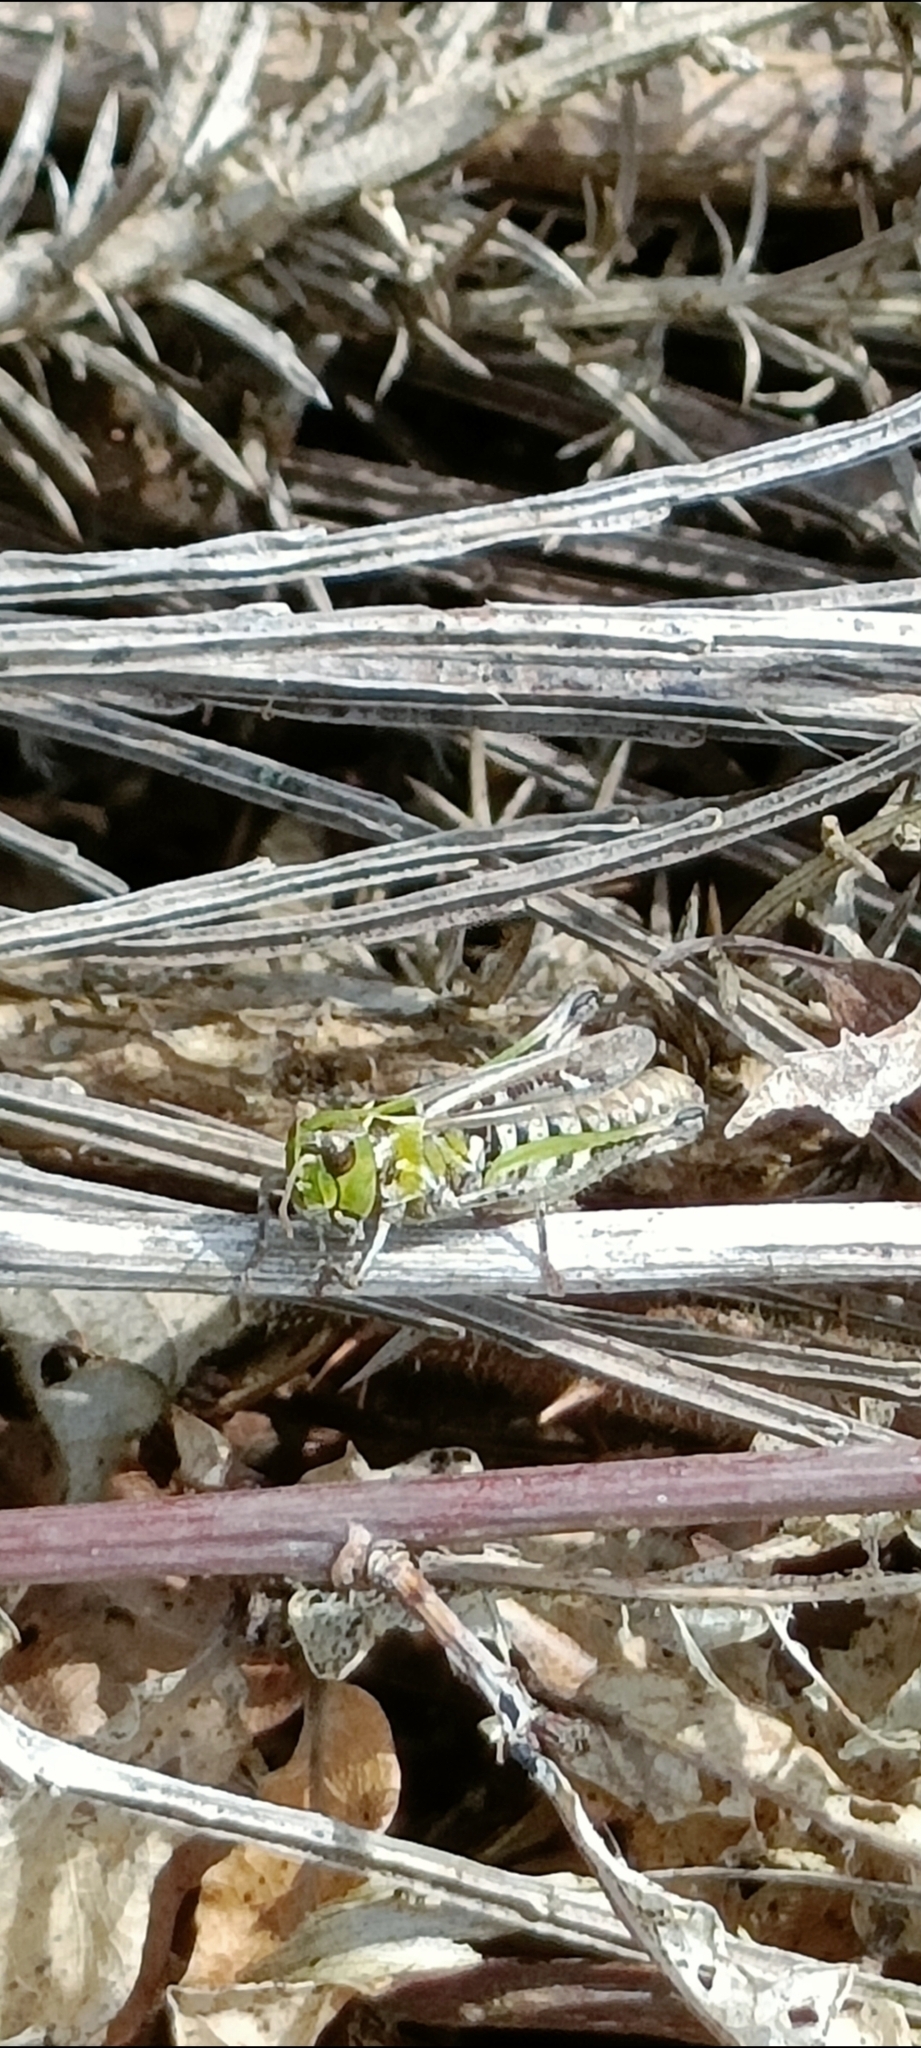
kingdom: Animalia
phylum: Arthropoda
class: Insecta
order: Orthoptera
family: Acrididae
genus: Myrmeleotettix
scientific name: Myrmeleotettix maculatus
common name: Mottled grasshopper
